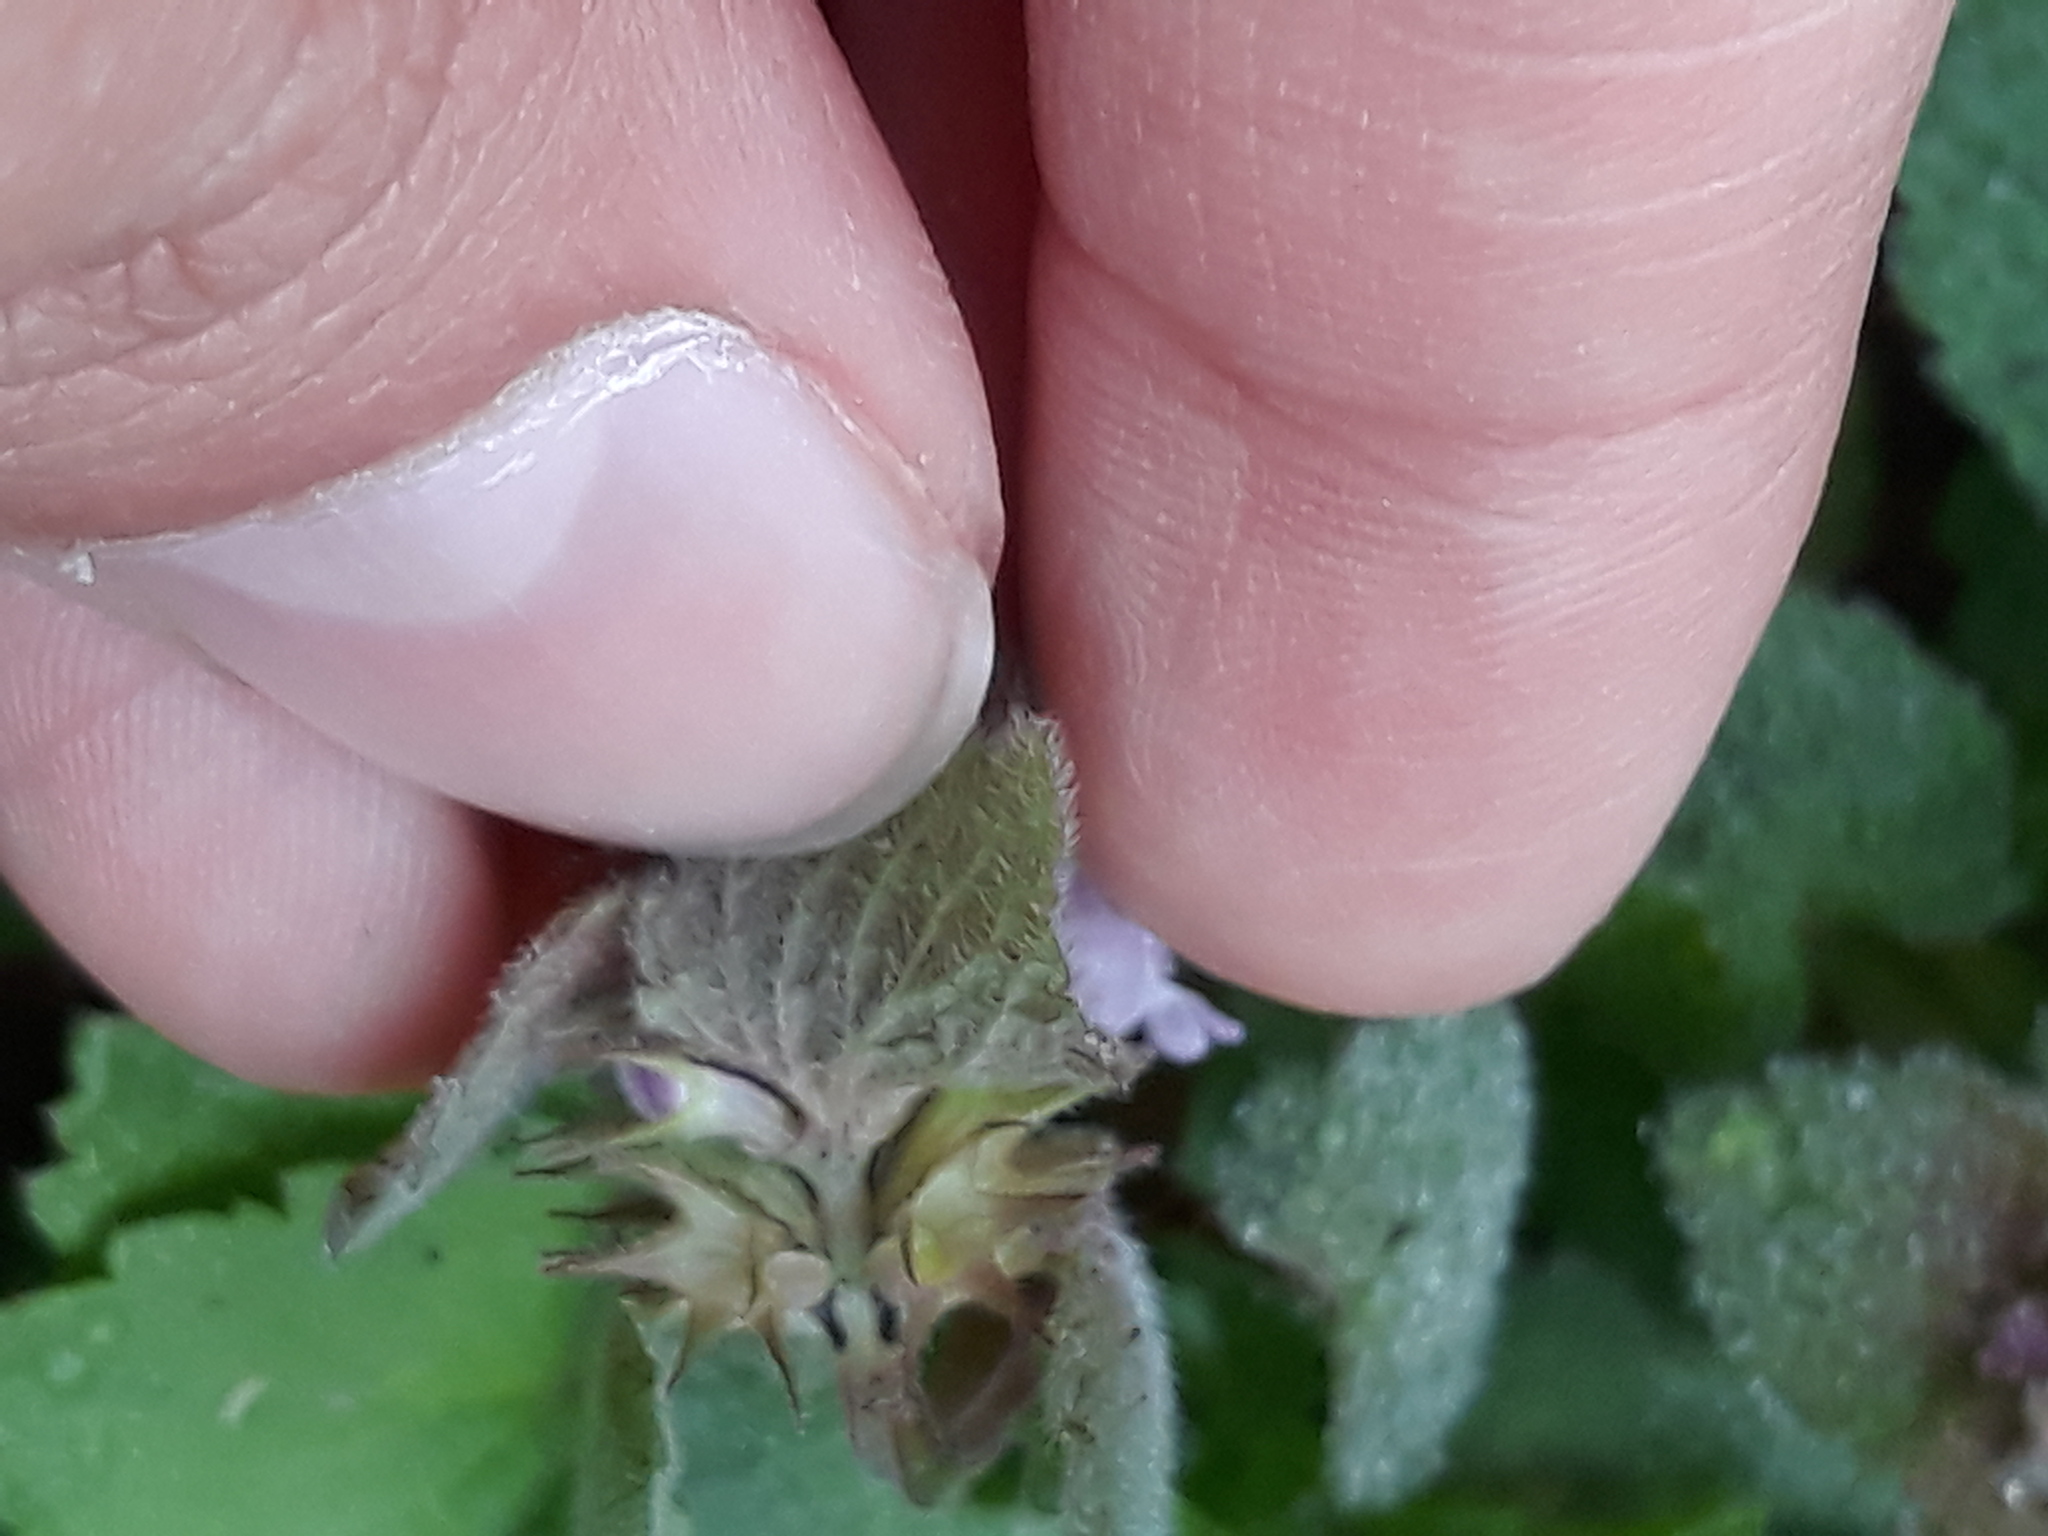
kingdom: Plantae
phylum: Tracheophyta
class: Magnoliopsida
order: Lamiales
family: Lamiaceae
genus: Lamium
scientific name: Lamium purpureum
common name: Red dead-nettle
